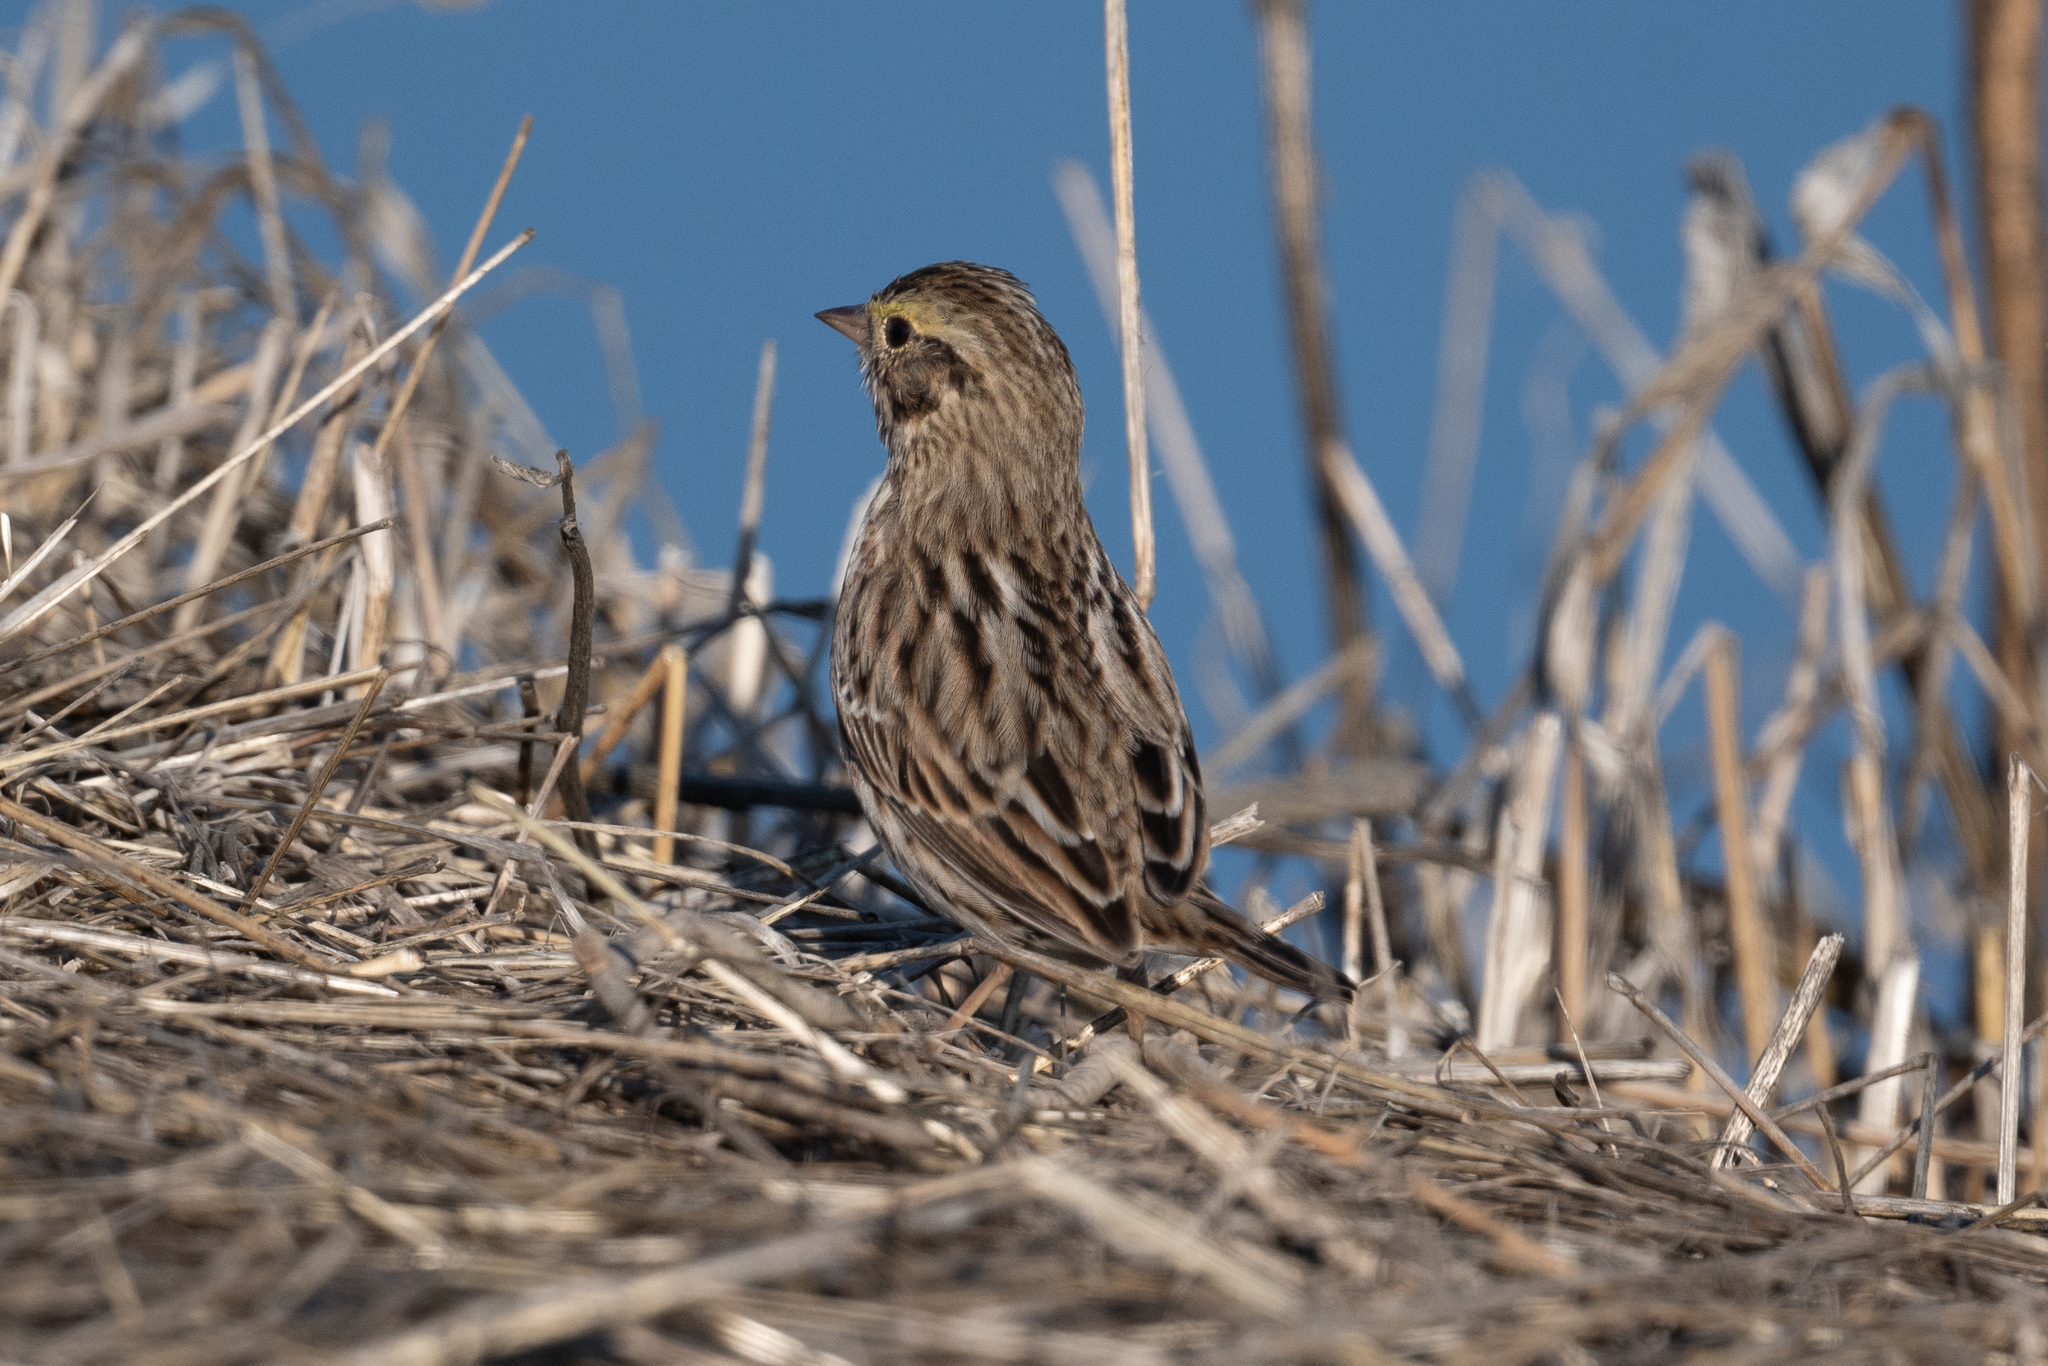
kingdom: Animalia
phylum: Chordata
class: Aves
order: Passeriformes
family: Passerellidae
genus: Passerculus
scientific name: Passerculus sandwichensis
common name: Savannah sparrow
